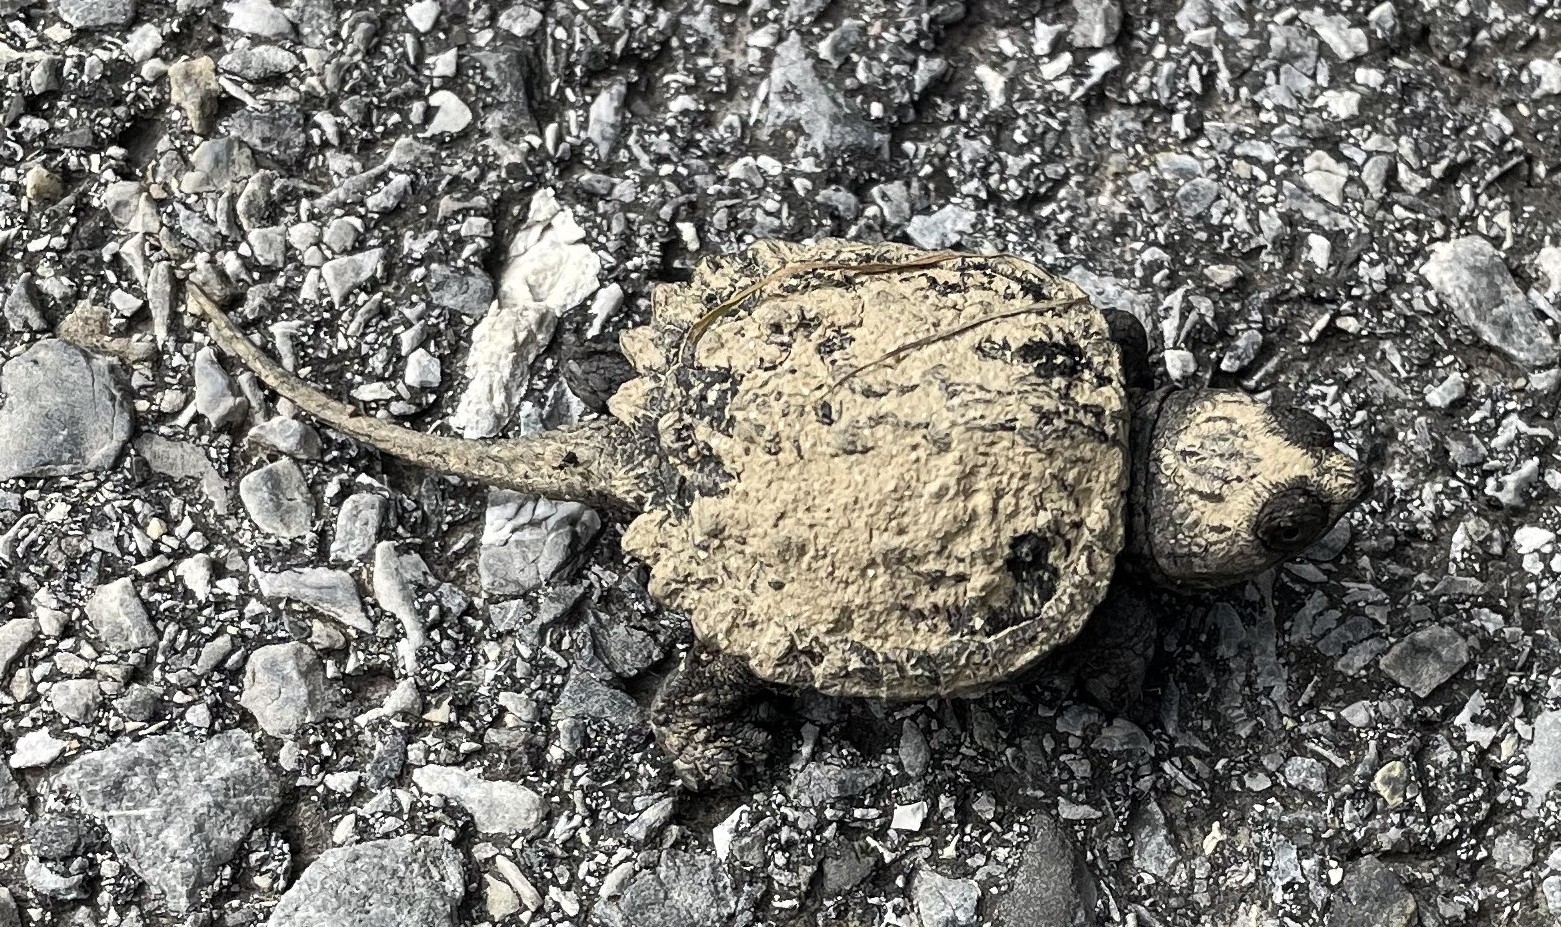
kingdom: Animalia
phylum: Chordata
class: Testudines
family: Chelydridae
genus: Chelydra
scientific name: Chelydra serpentina
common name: Common snapping turtle
